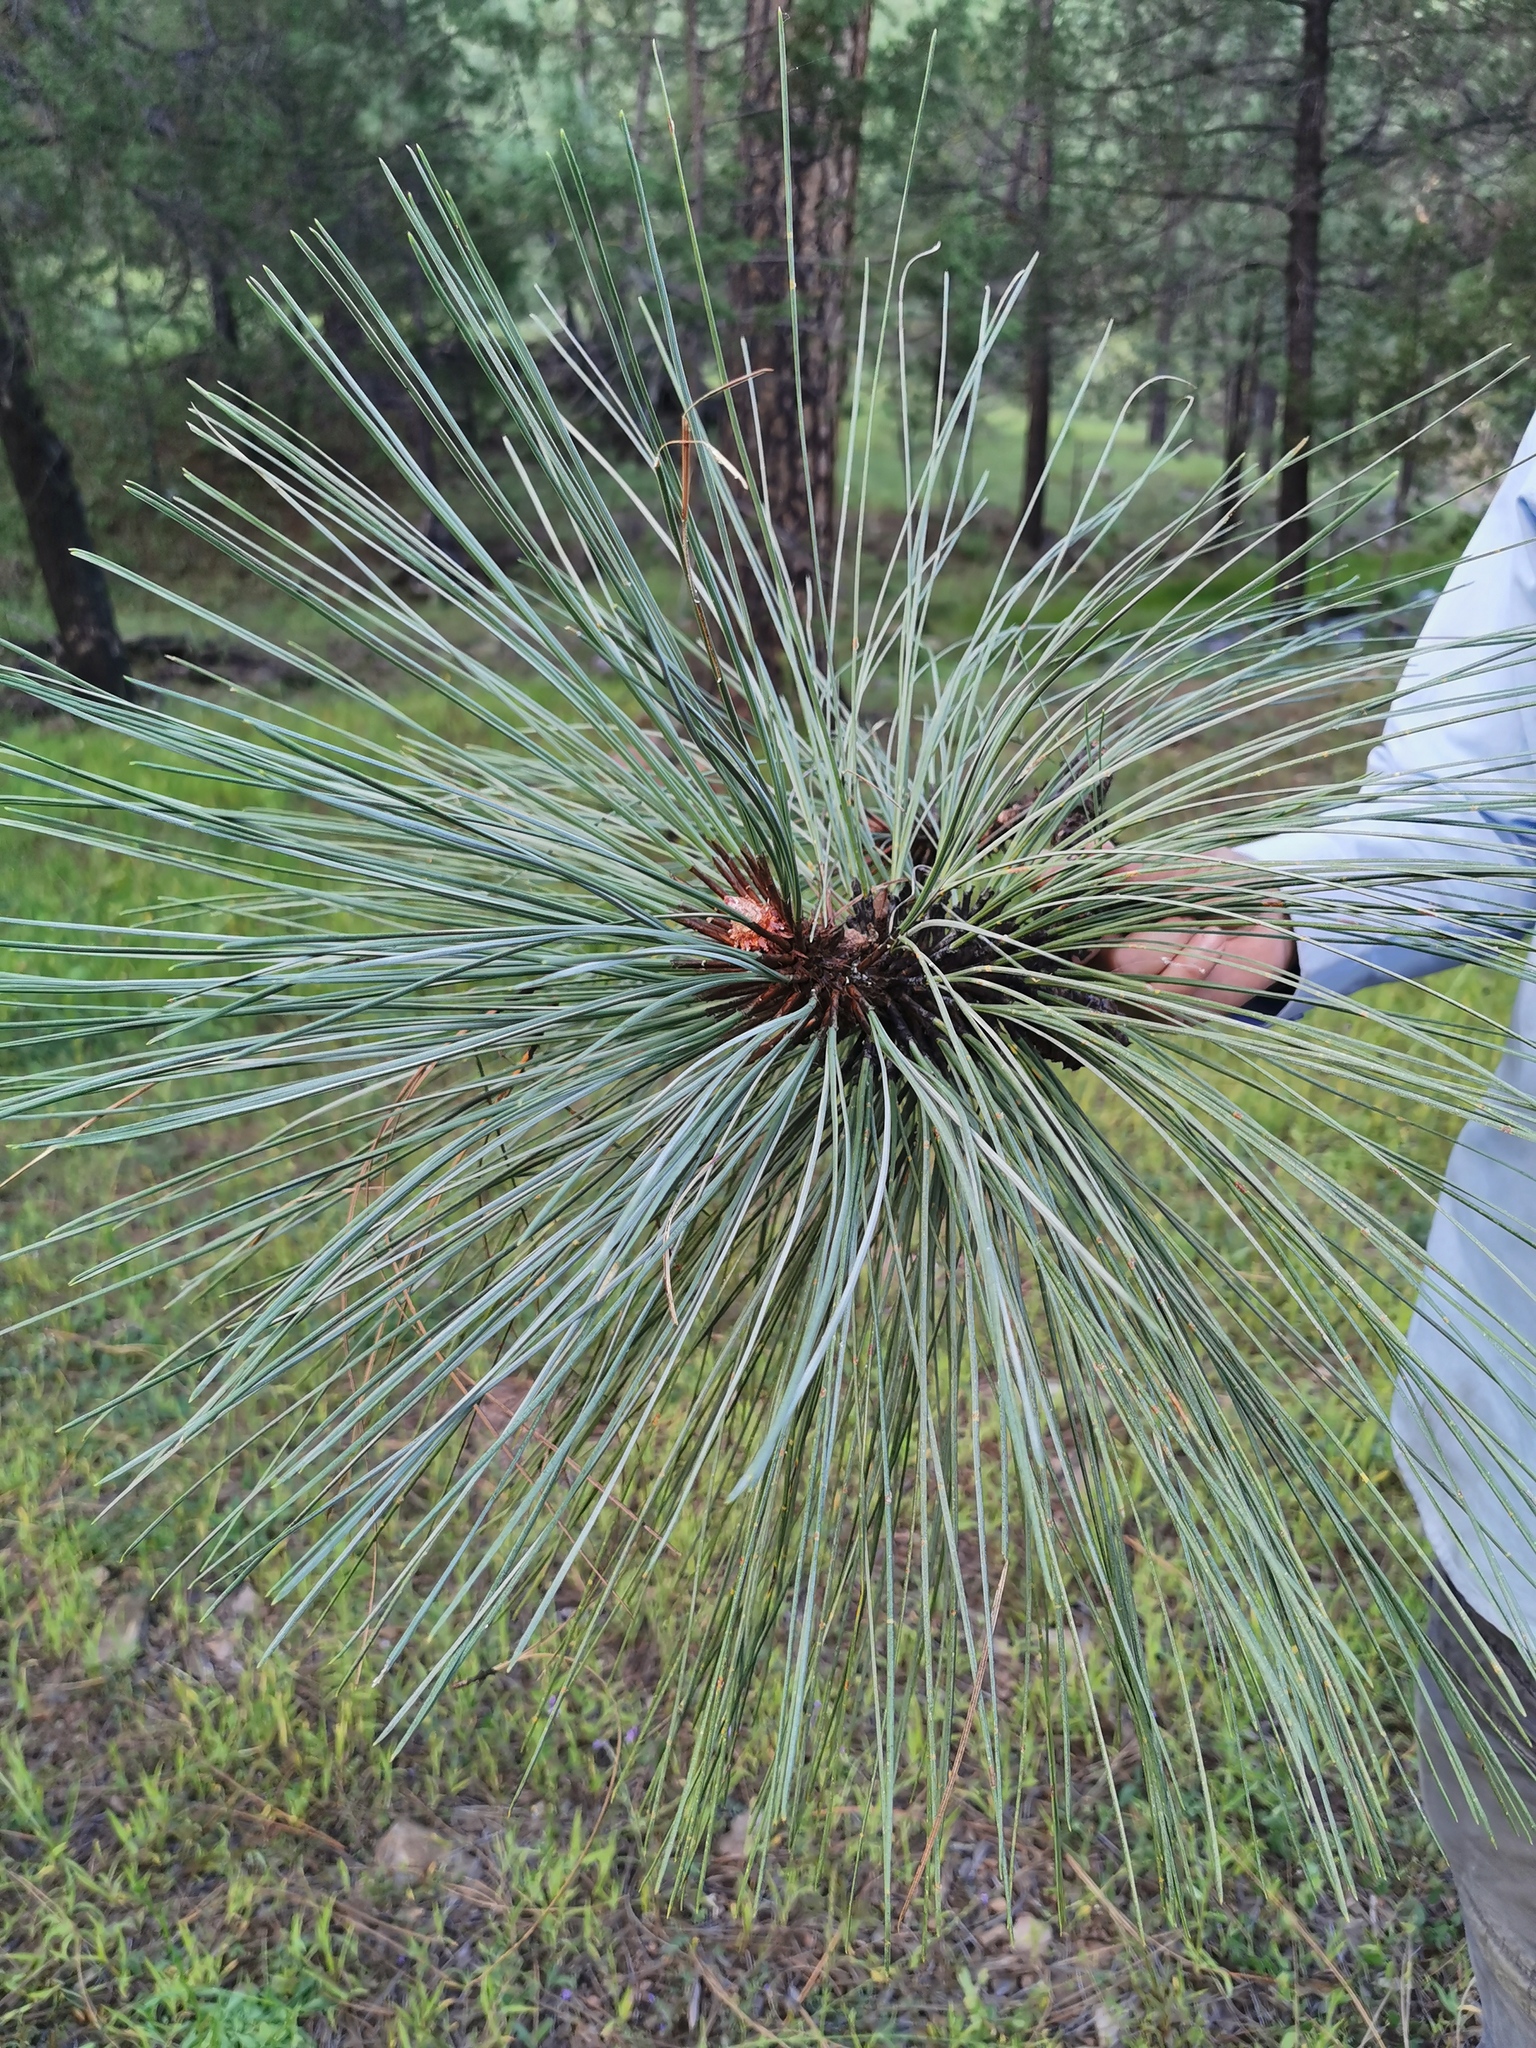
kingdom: Plantae
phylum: Tracheophyta
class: Pinopsida
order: Pinales
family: Pinaceae
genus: Pinus
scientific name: Pinus engelmannii
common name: Apache pine
